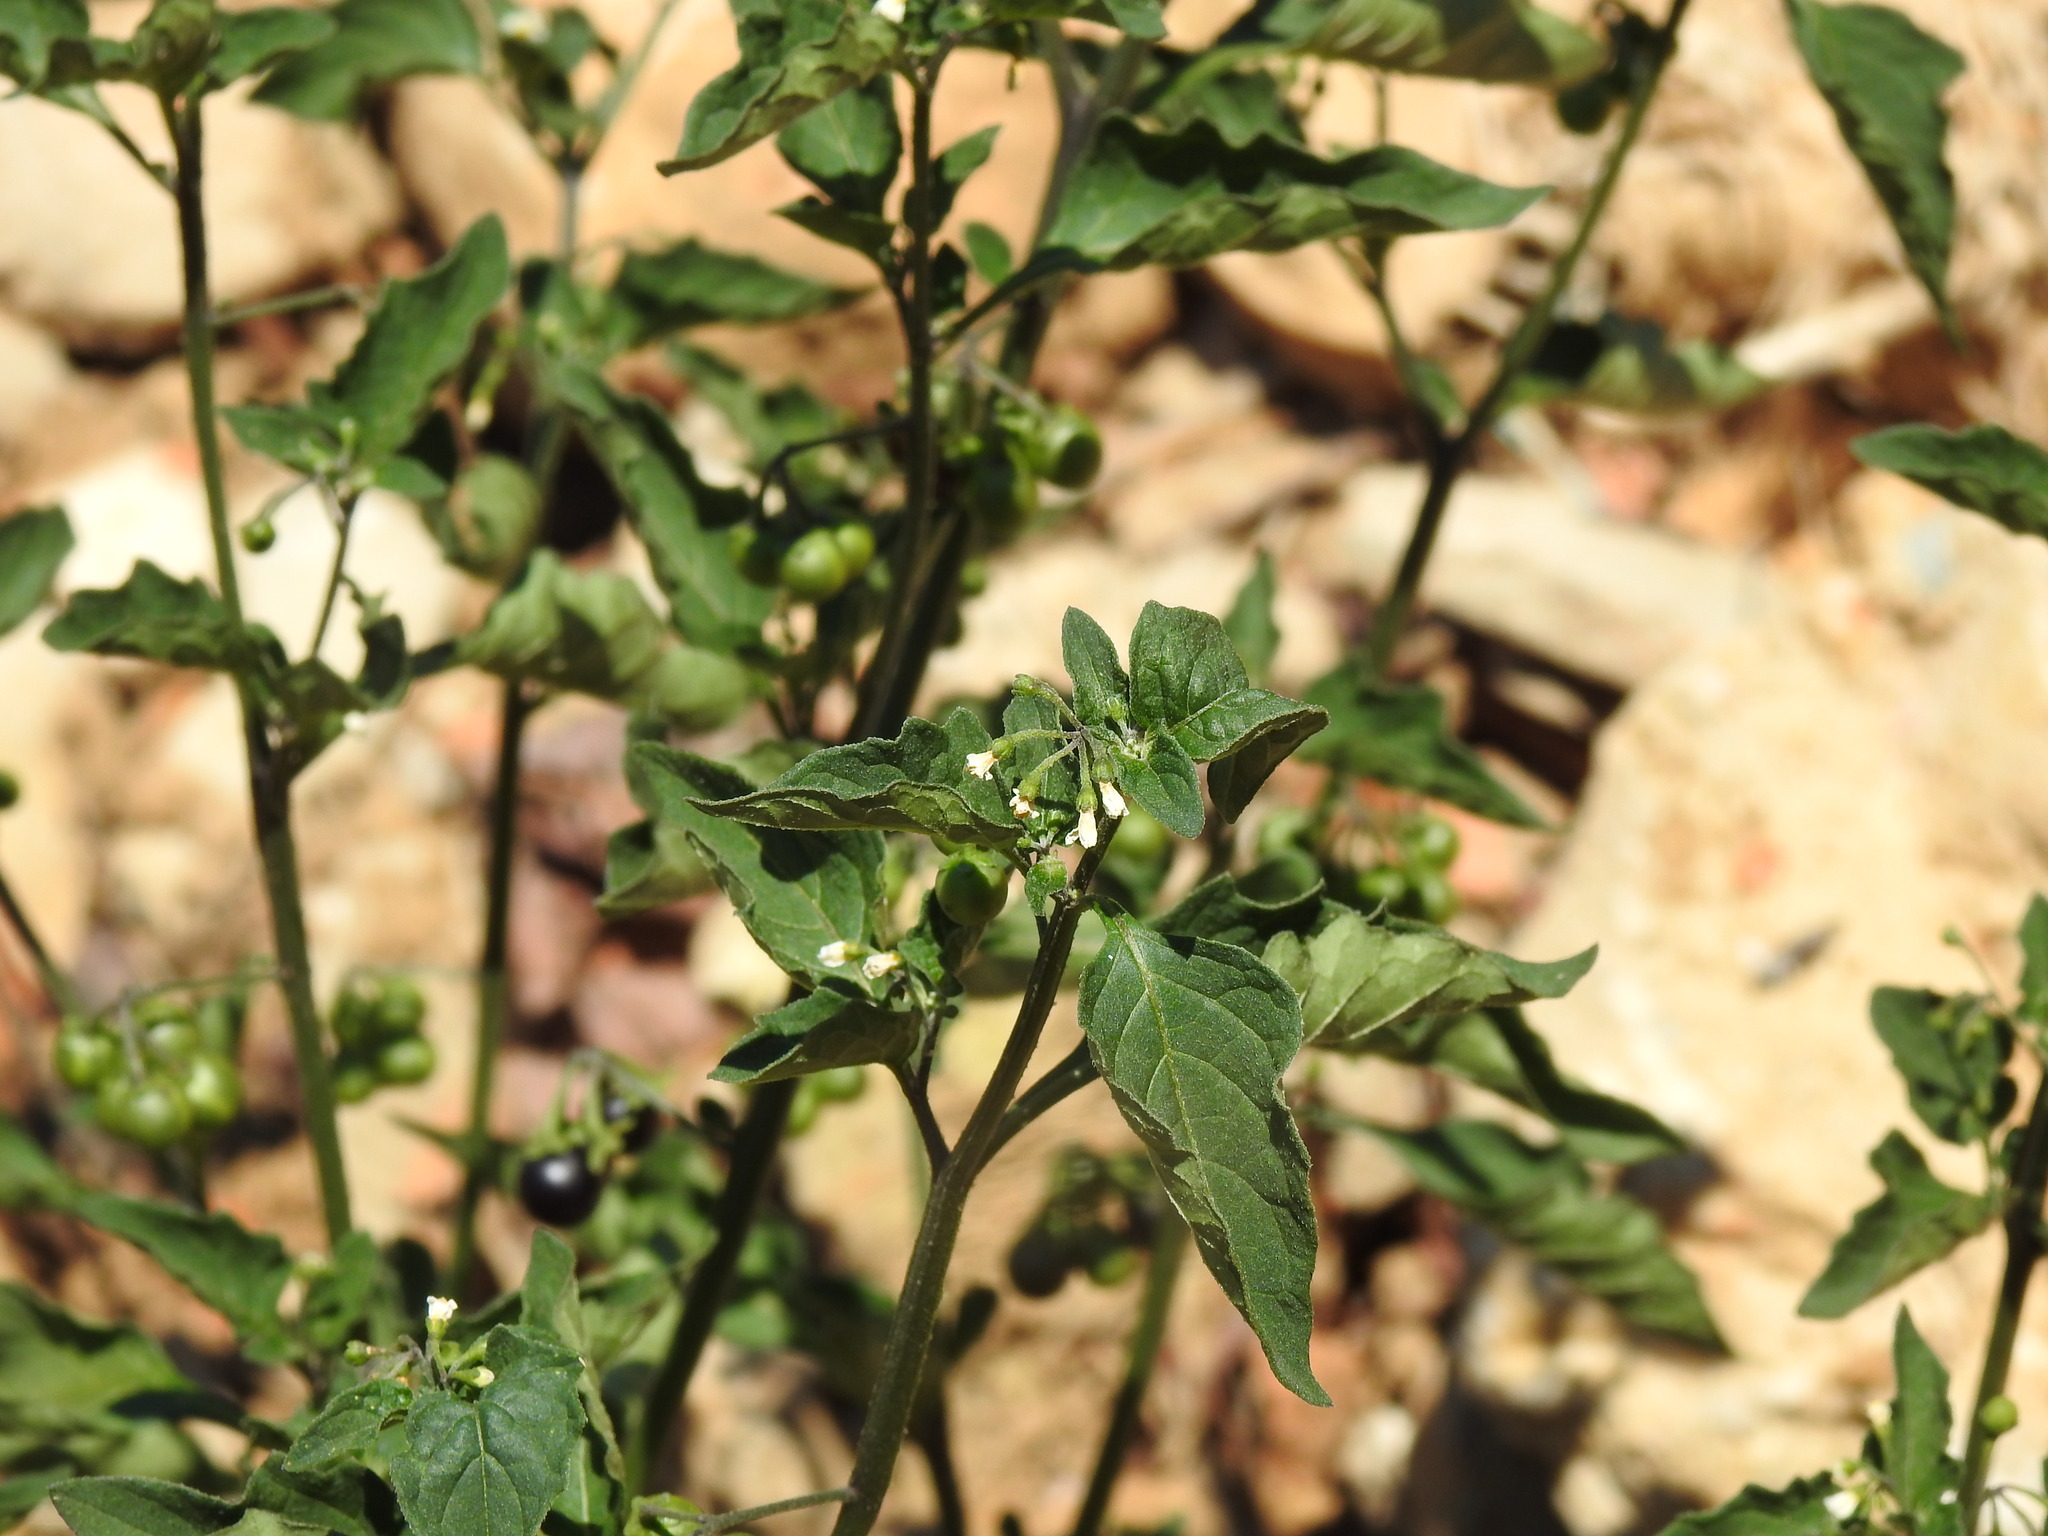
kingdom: Plantae
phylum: Tracheophyta
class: Magnoliopsida
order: Solanales
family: Solanaceae
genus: Solanum
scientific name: Solanum nigrum
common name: Black nightshade
